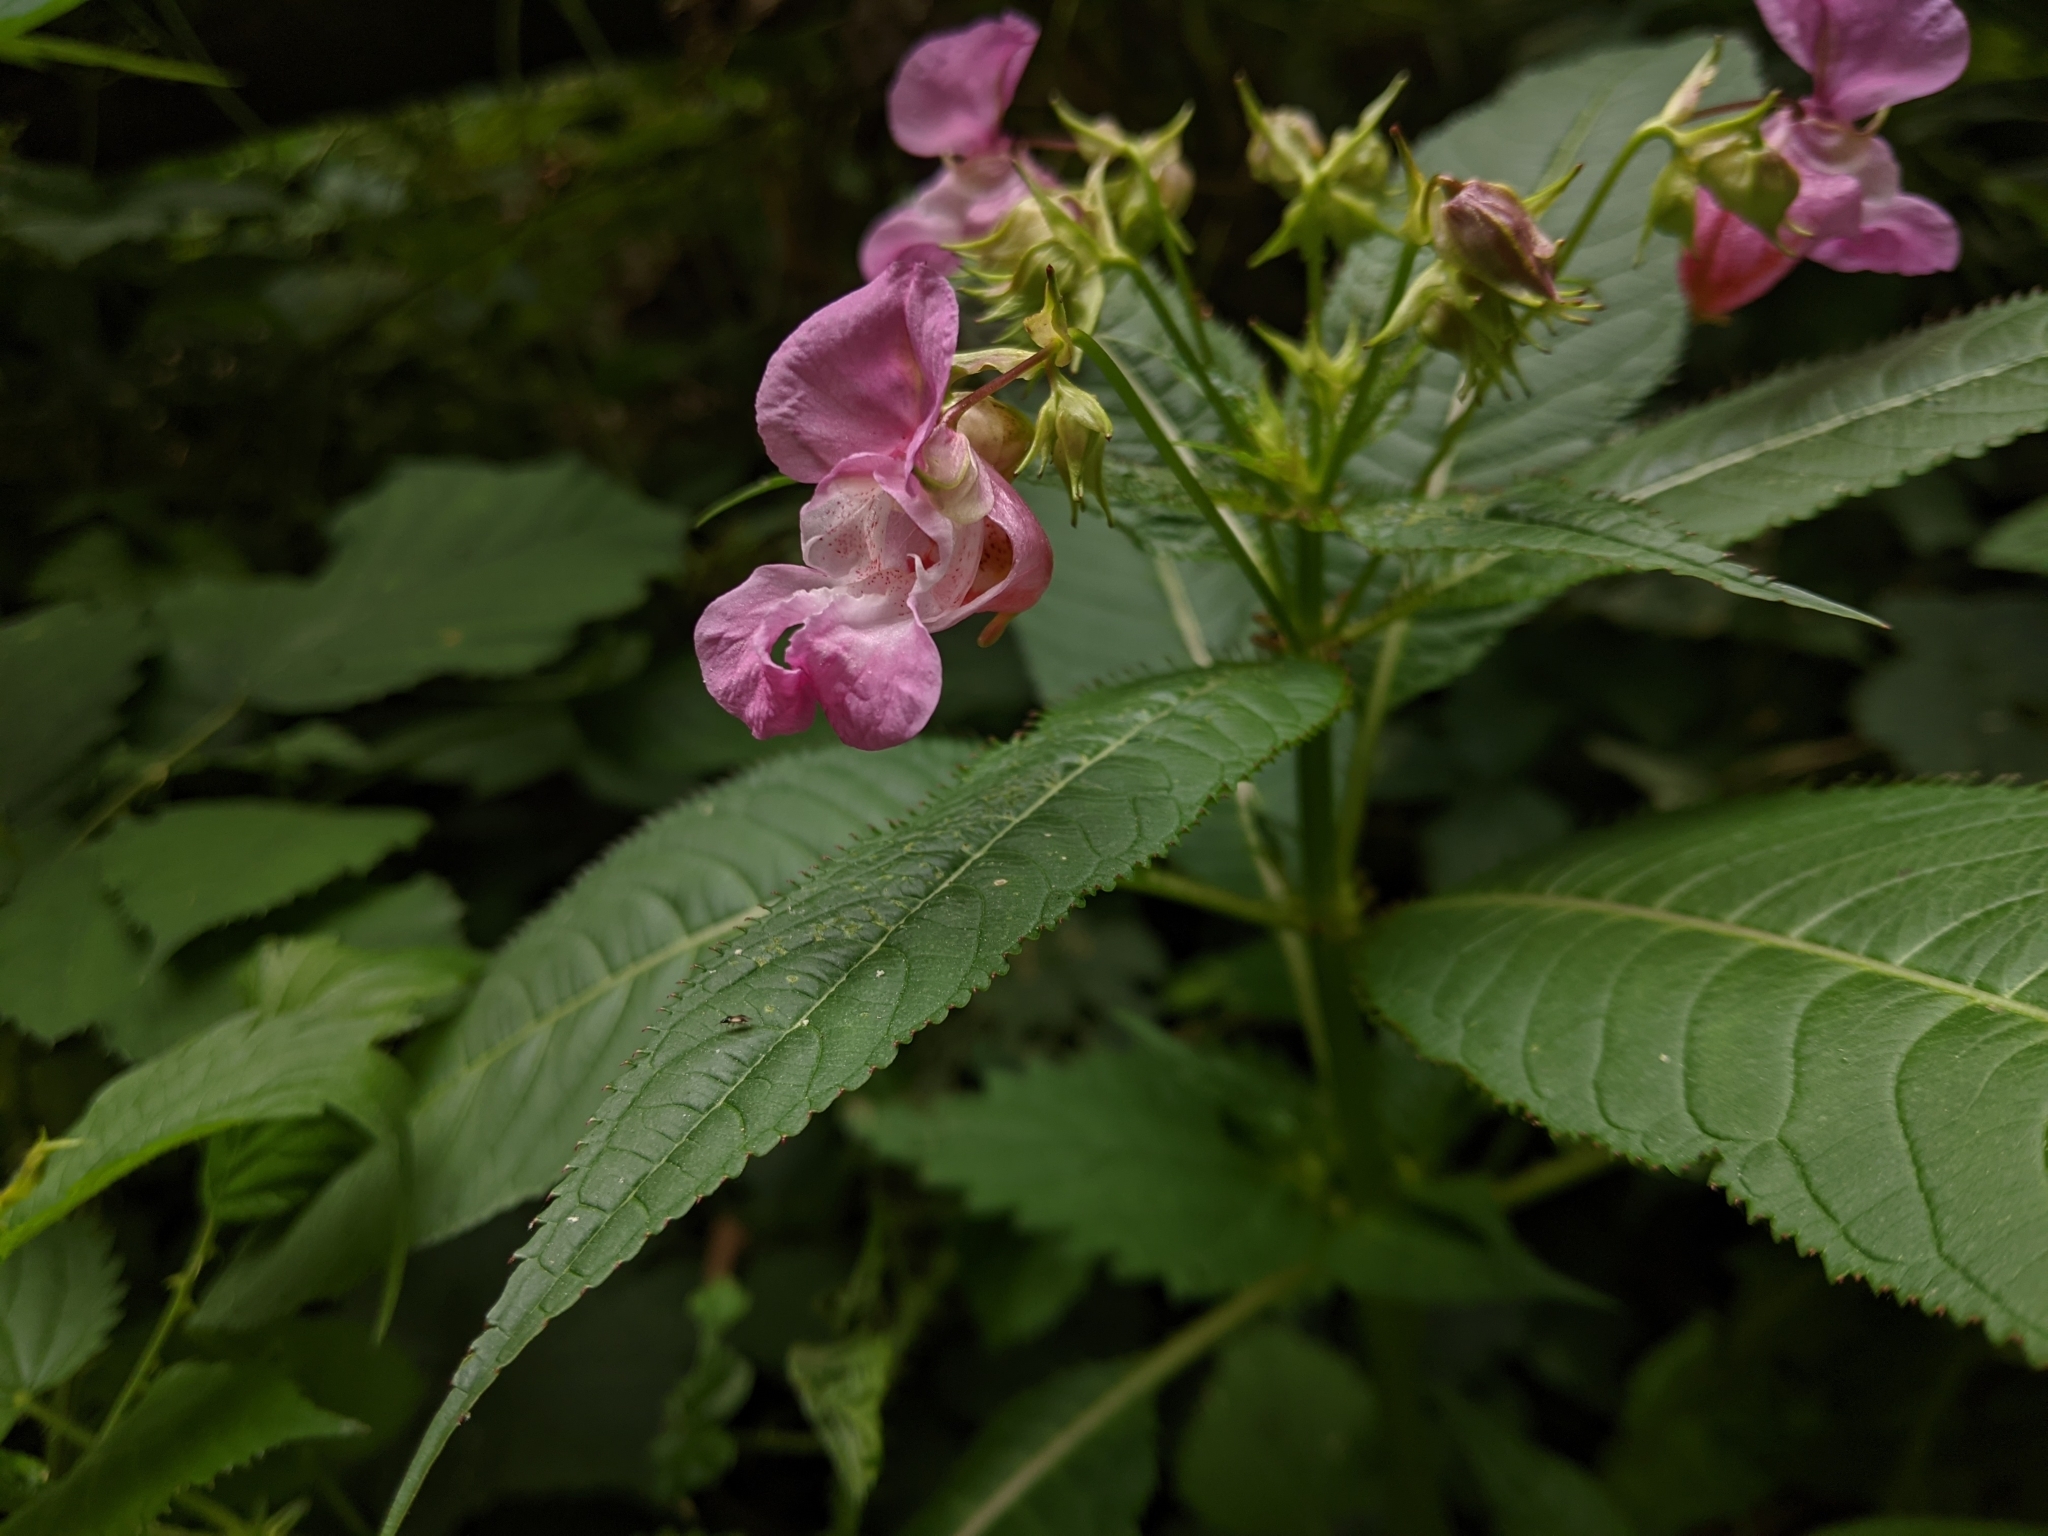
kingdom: Plantae
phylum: Tracheophyta
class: Magnoliopsida
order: Ericales
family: Balsaminaceae
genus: Impatiens
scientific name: Impatiens glandulifera
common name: Himalayan balsam
